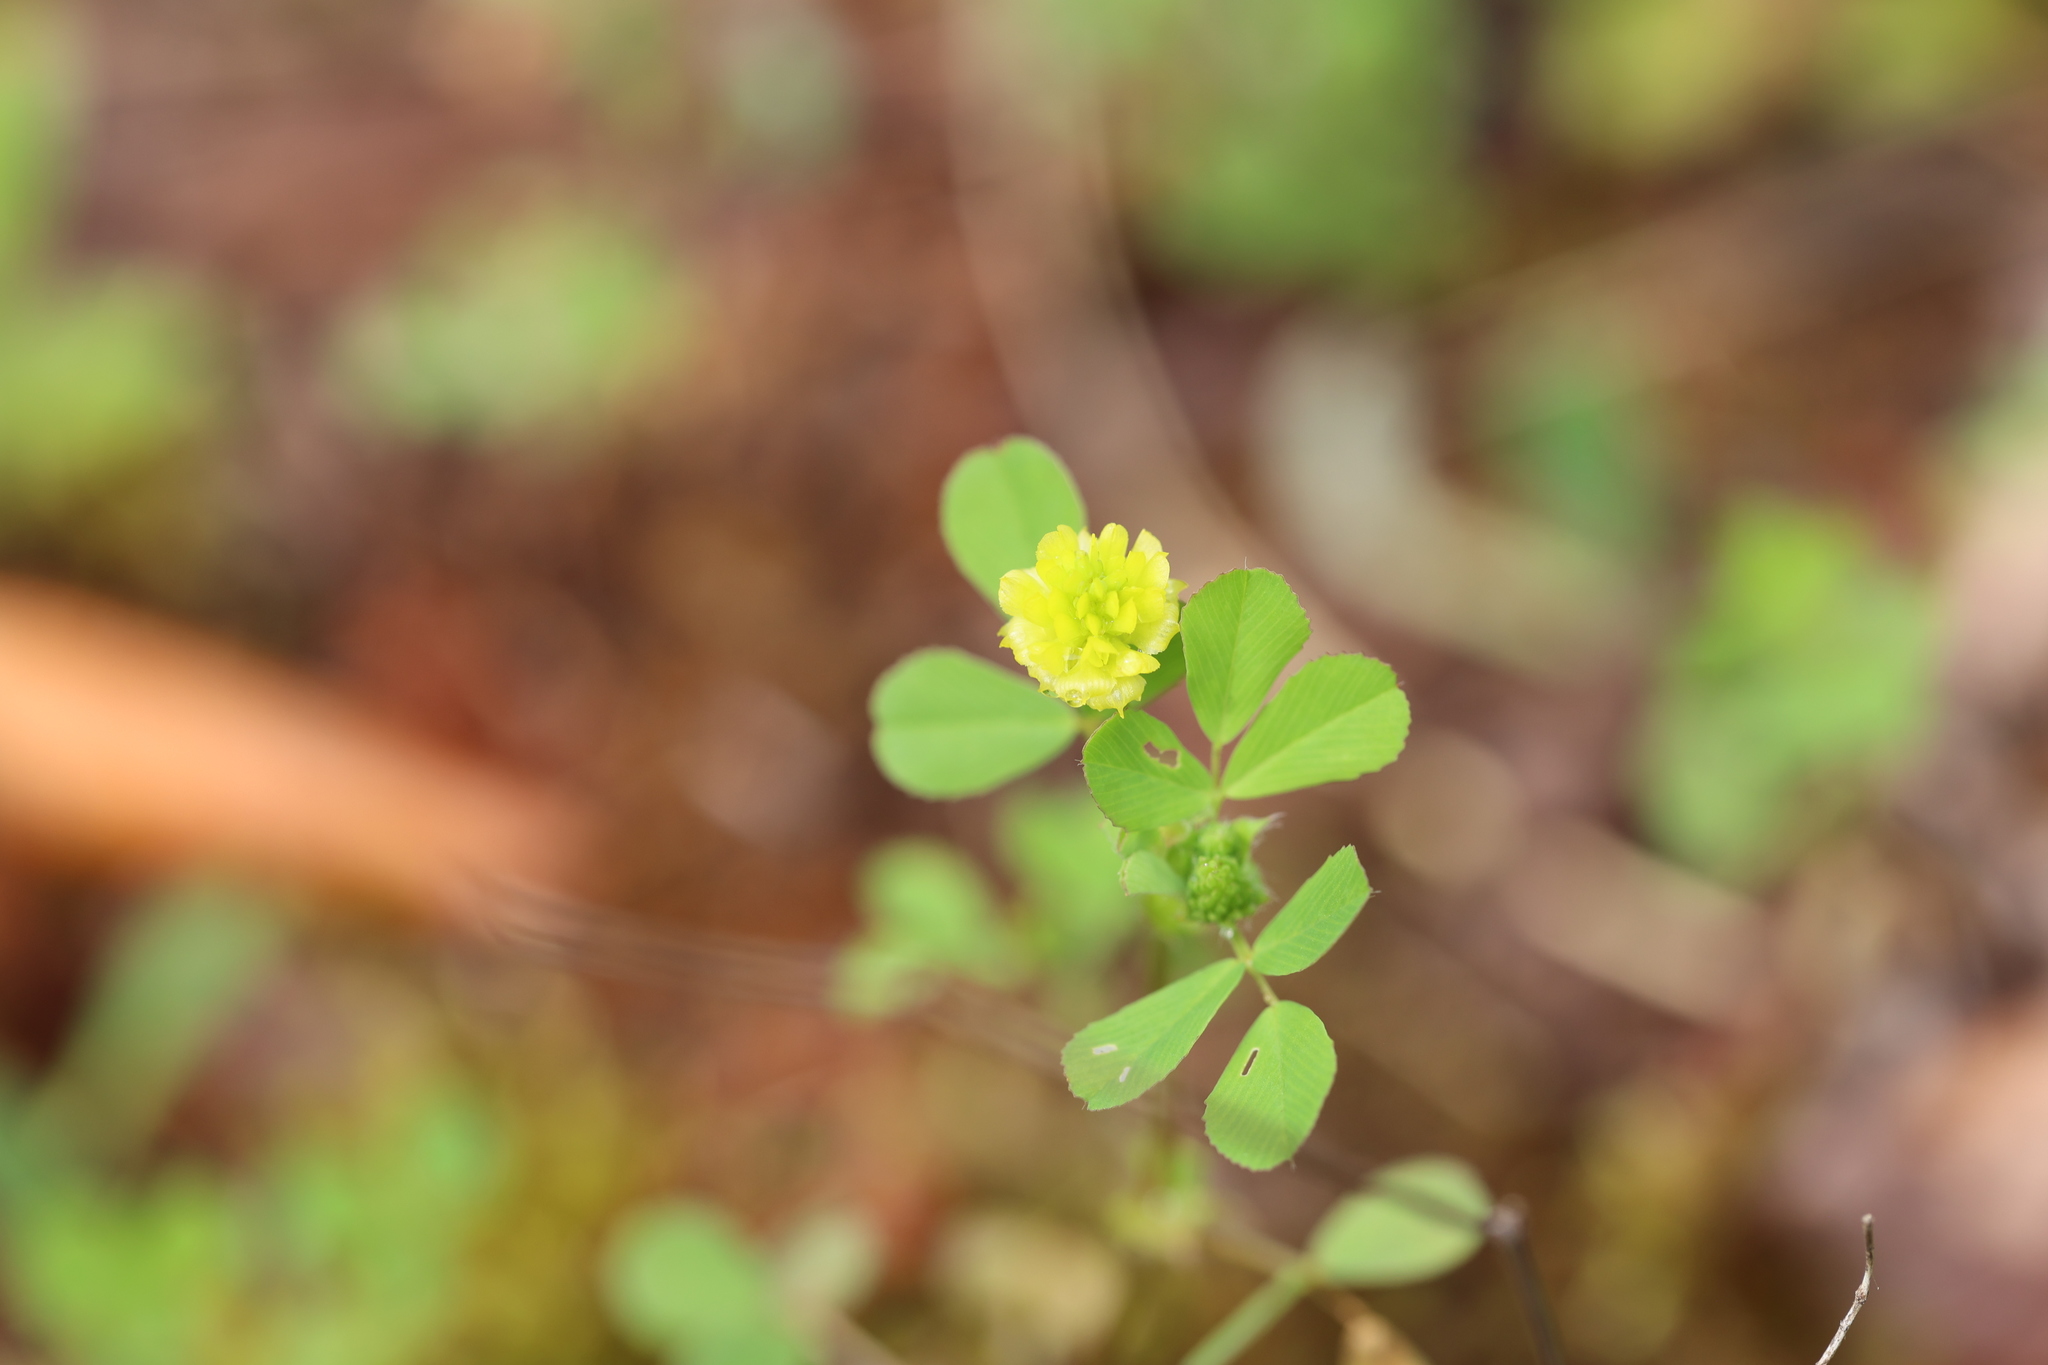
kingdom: Plantae
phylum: Tracheophyta
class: Magnoliopsida
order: Fabales
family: Fabaceae
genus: Trifolium
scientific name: Trifolium campestre
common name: Field clover
